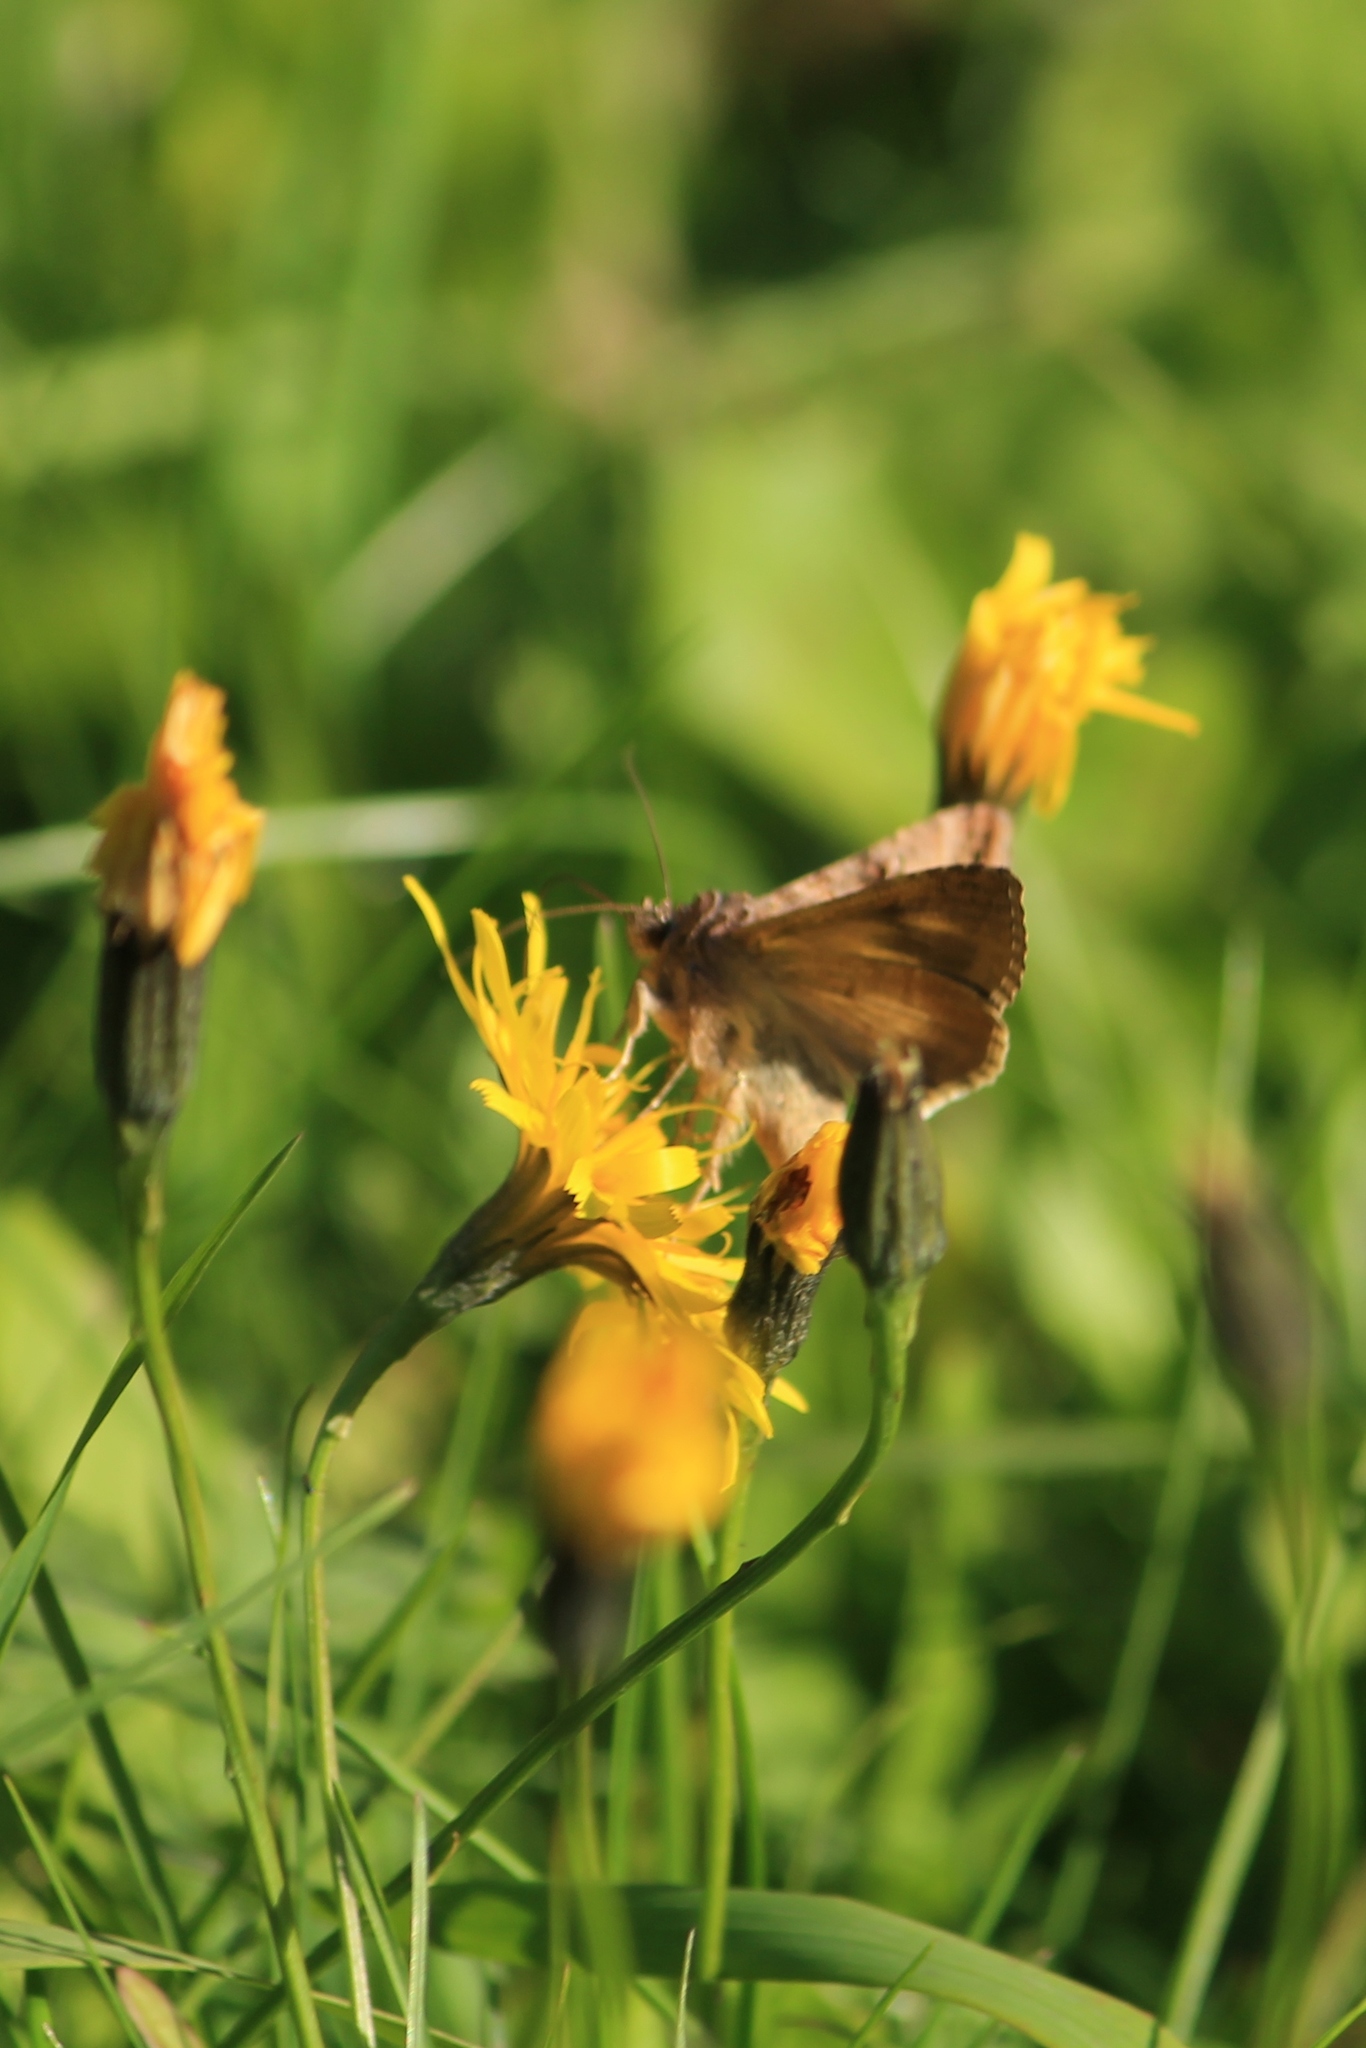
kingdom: Animalia
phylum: Arthropoda
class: Insecta
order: Lepidoptera
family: Noctuidae
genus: Autographa
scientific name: Autographa gamma
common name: Silver y
